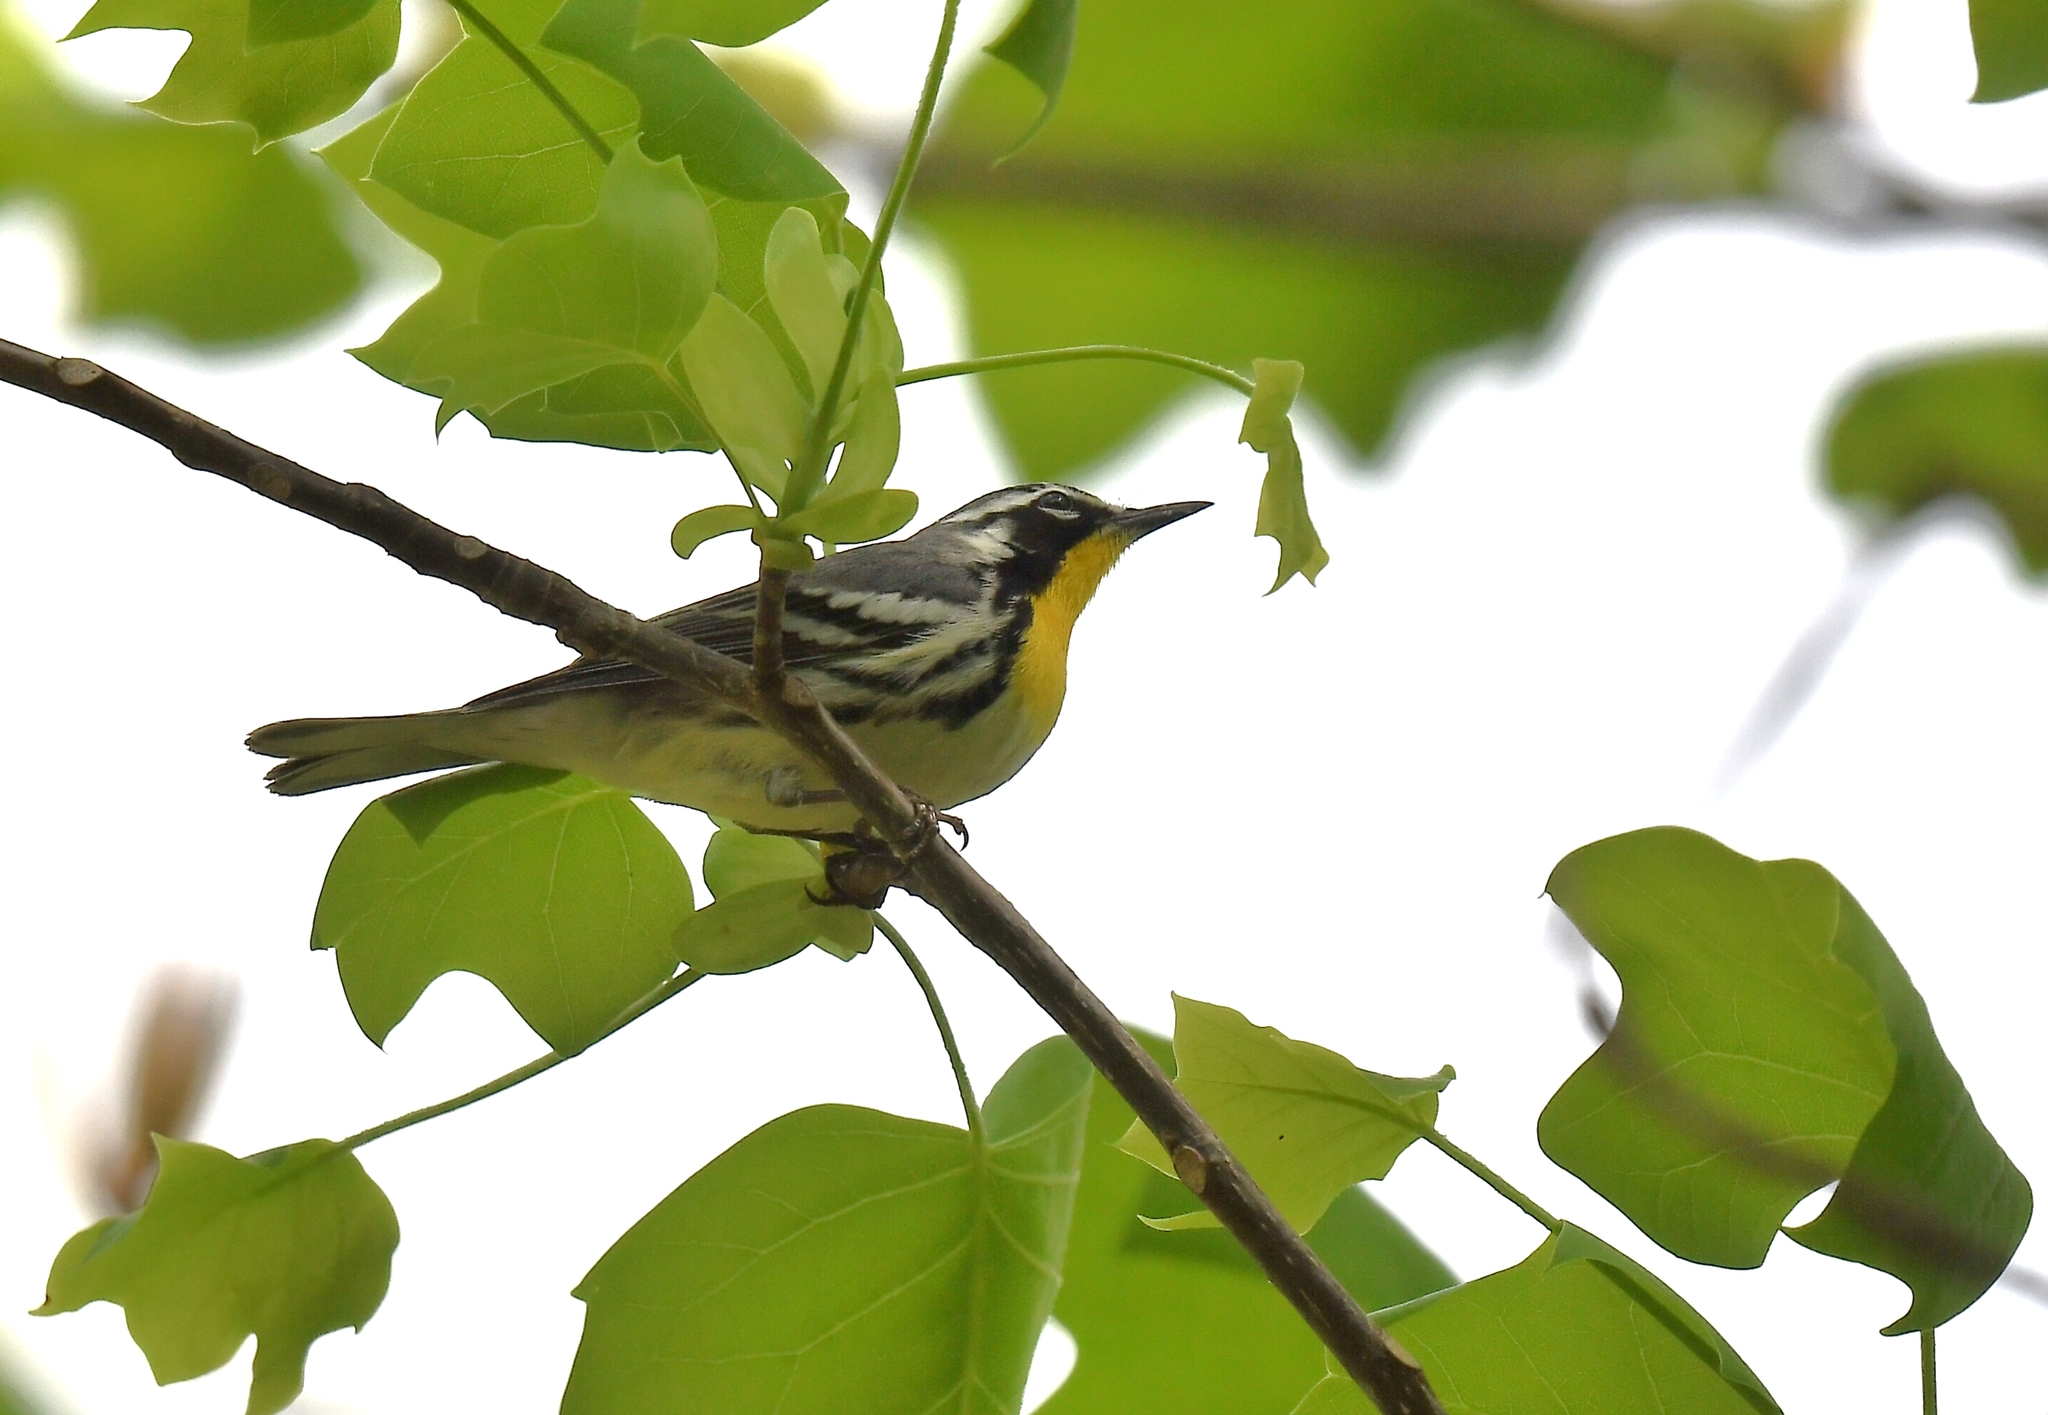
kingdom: Animalia
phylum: Chordata
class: Aves
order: Passeriformes
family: Parulidae
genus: Setophaga
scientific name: Setophaga dominica
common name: Yellow-throated warbler
